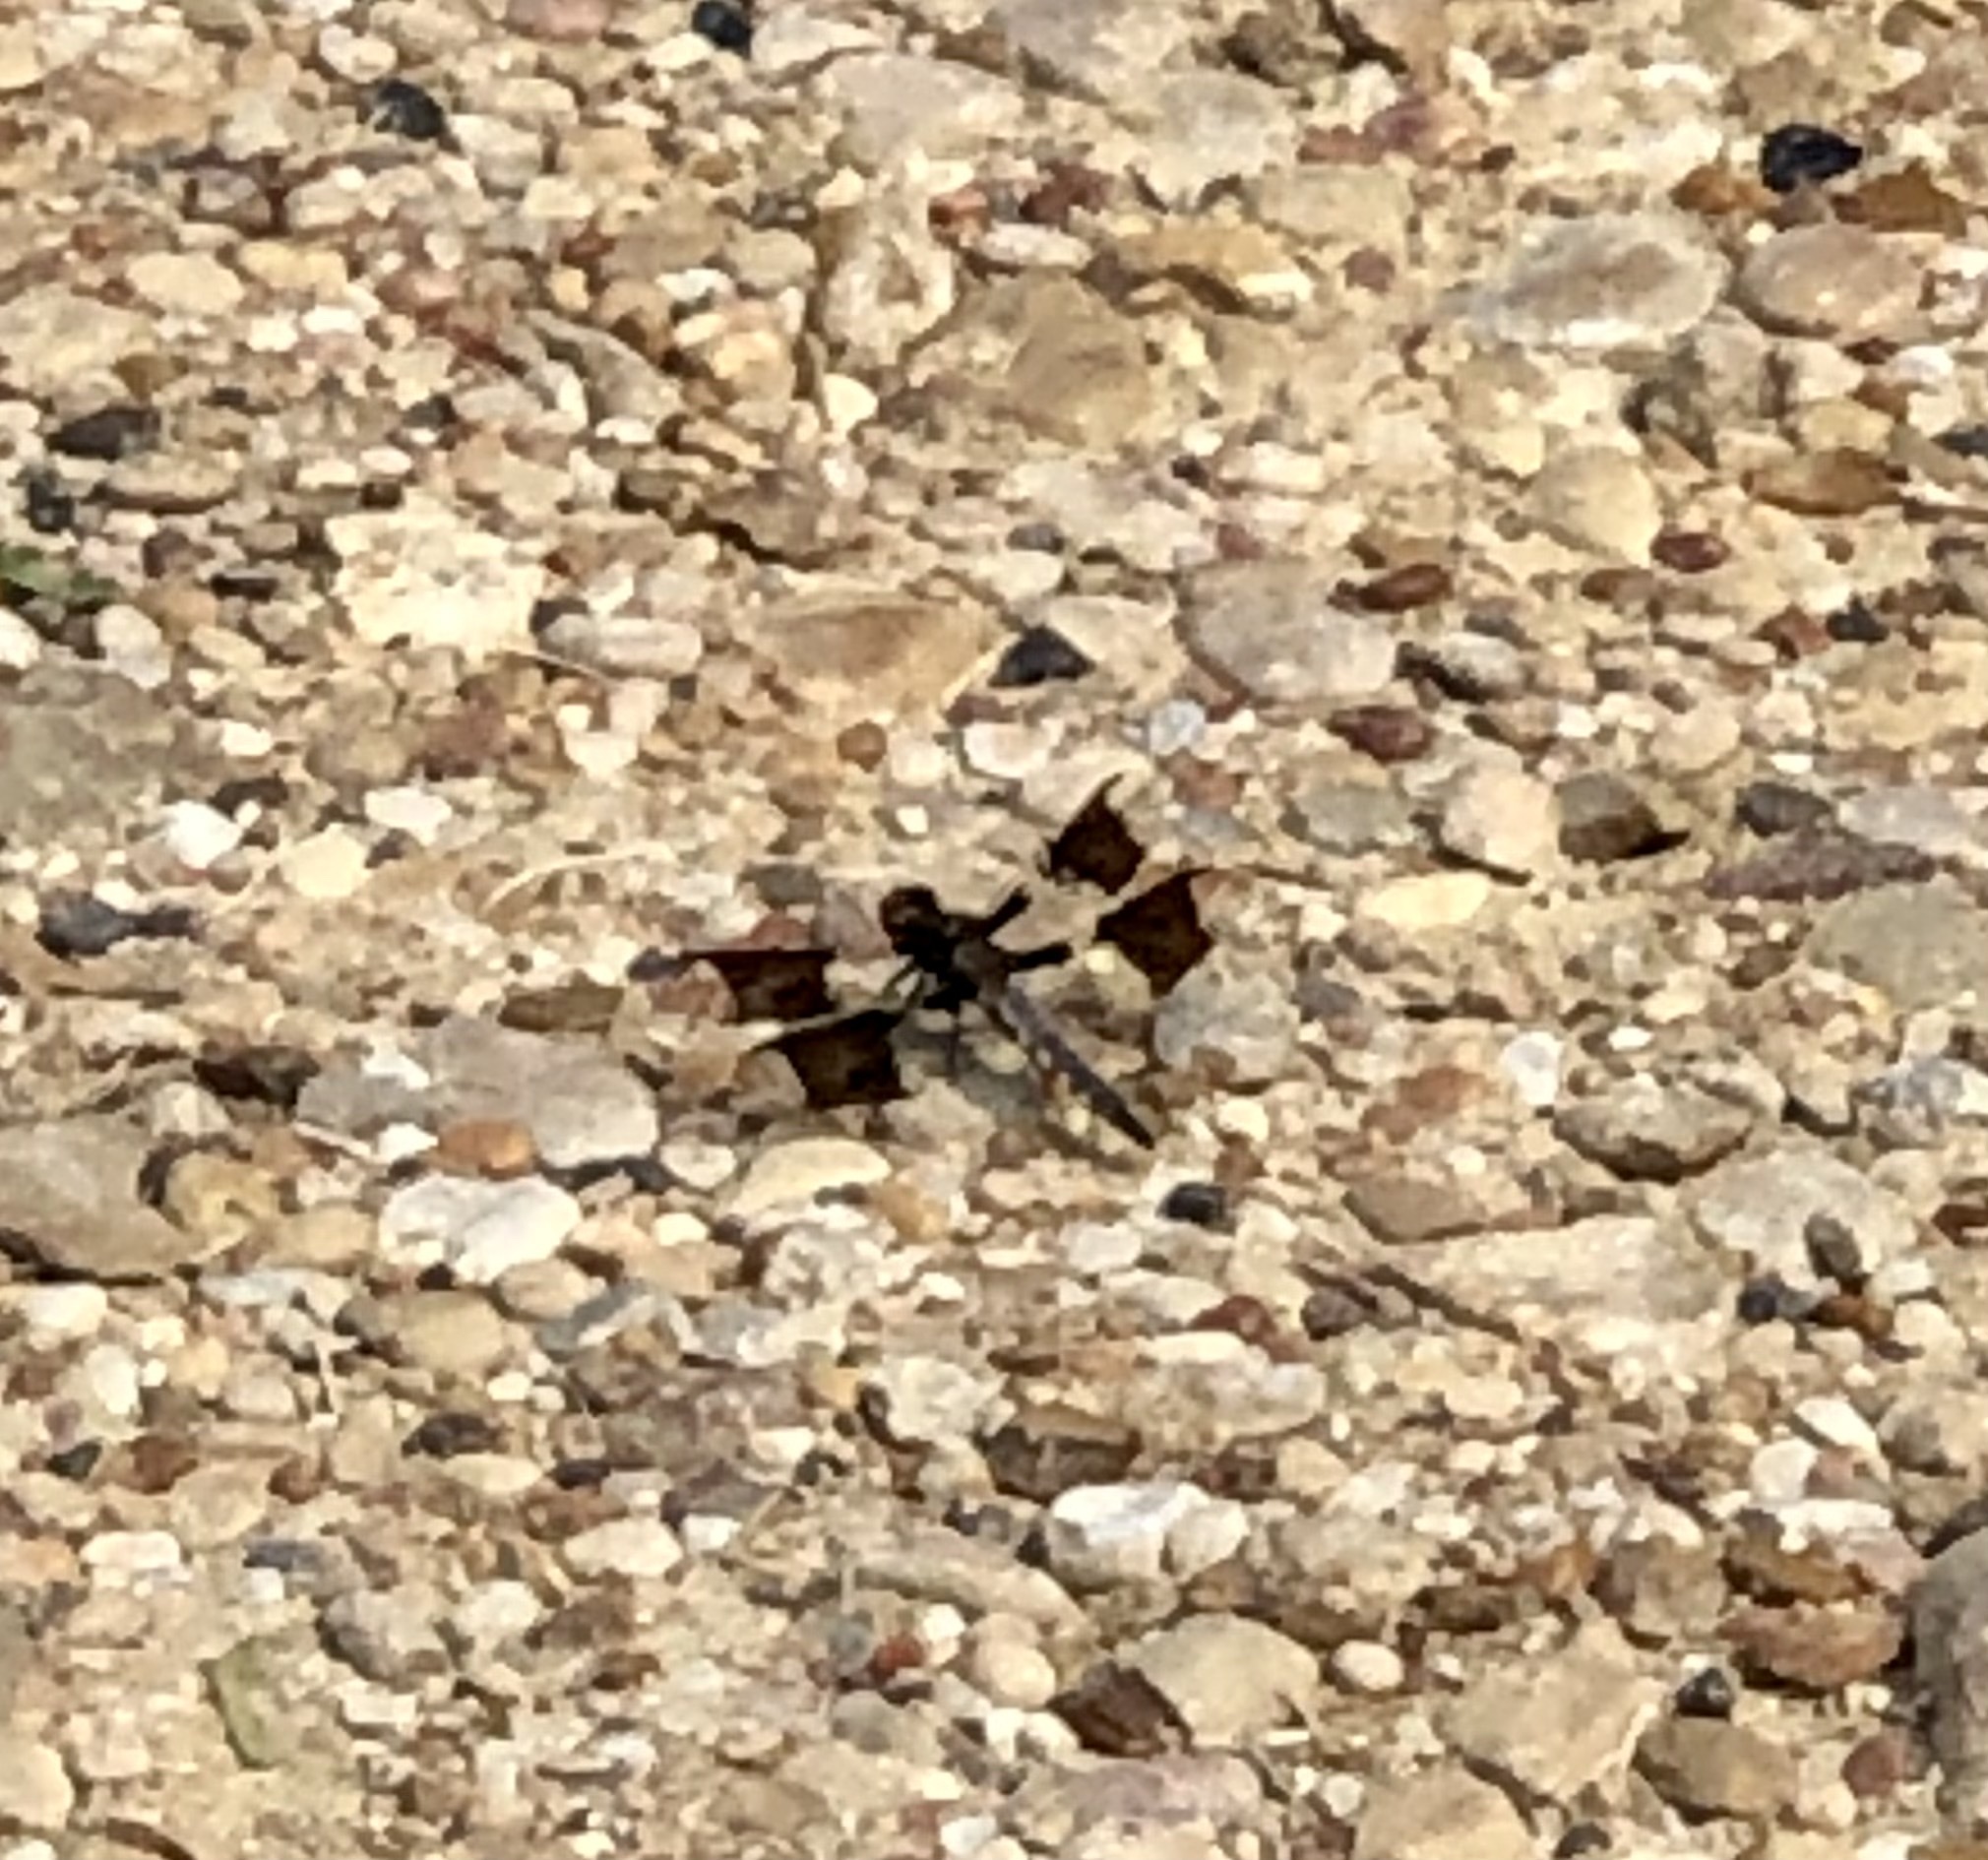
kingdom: Animalia
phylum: Arthropoda
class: Insecta
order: Odonata
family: Libellulidae
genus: Plathemis
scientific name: Plathemis lydia
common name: Common whitetail
